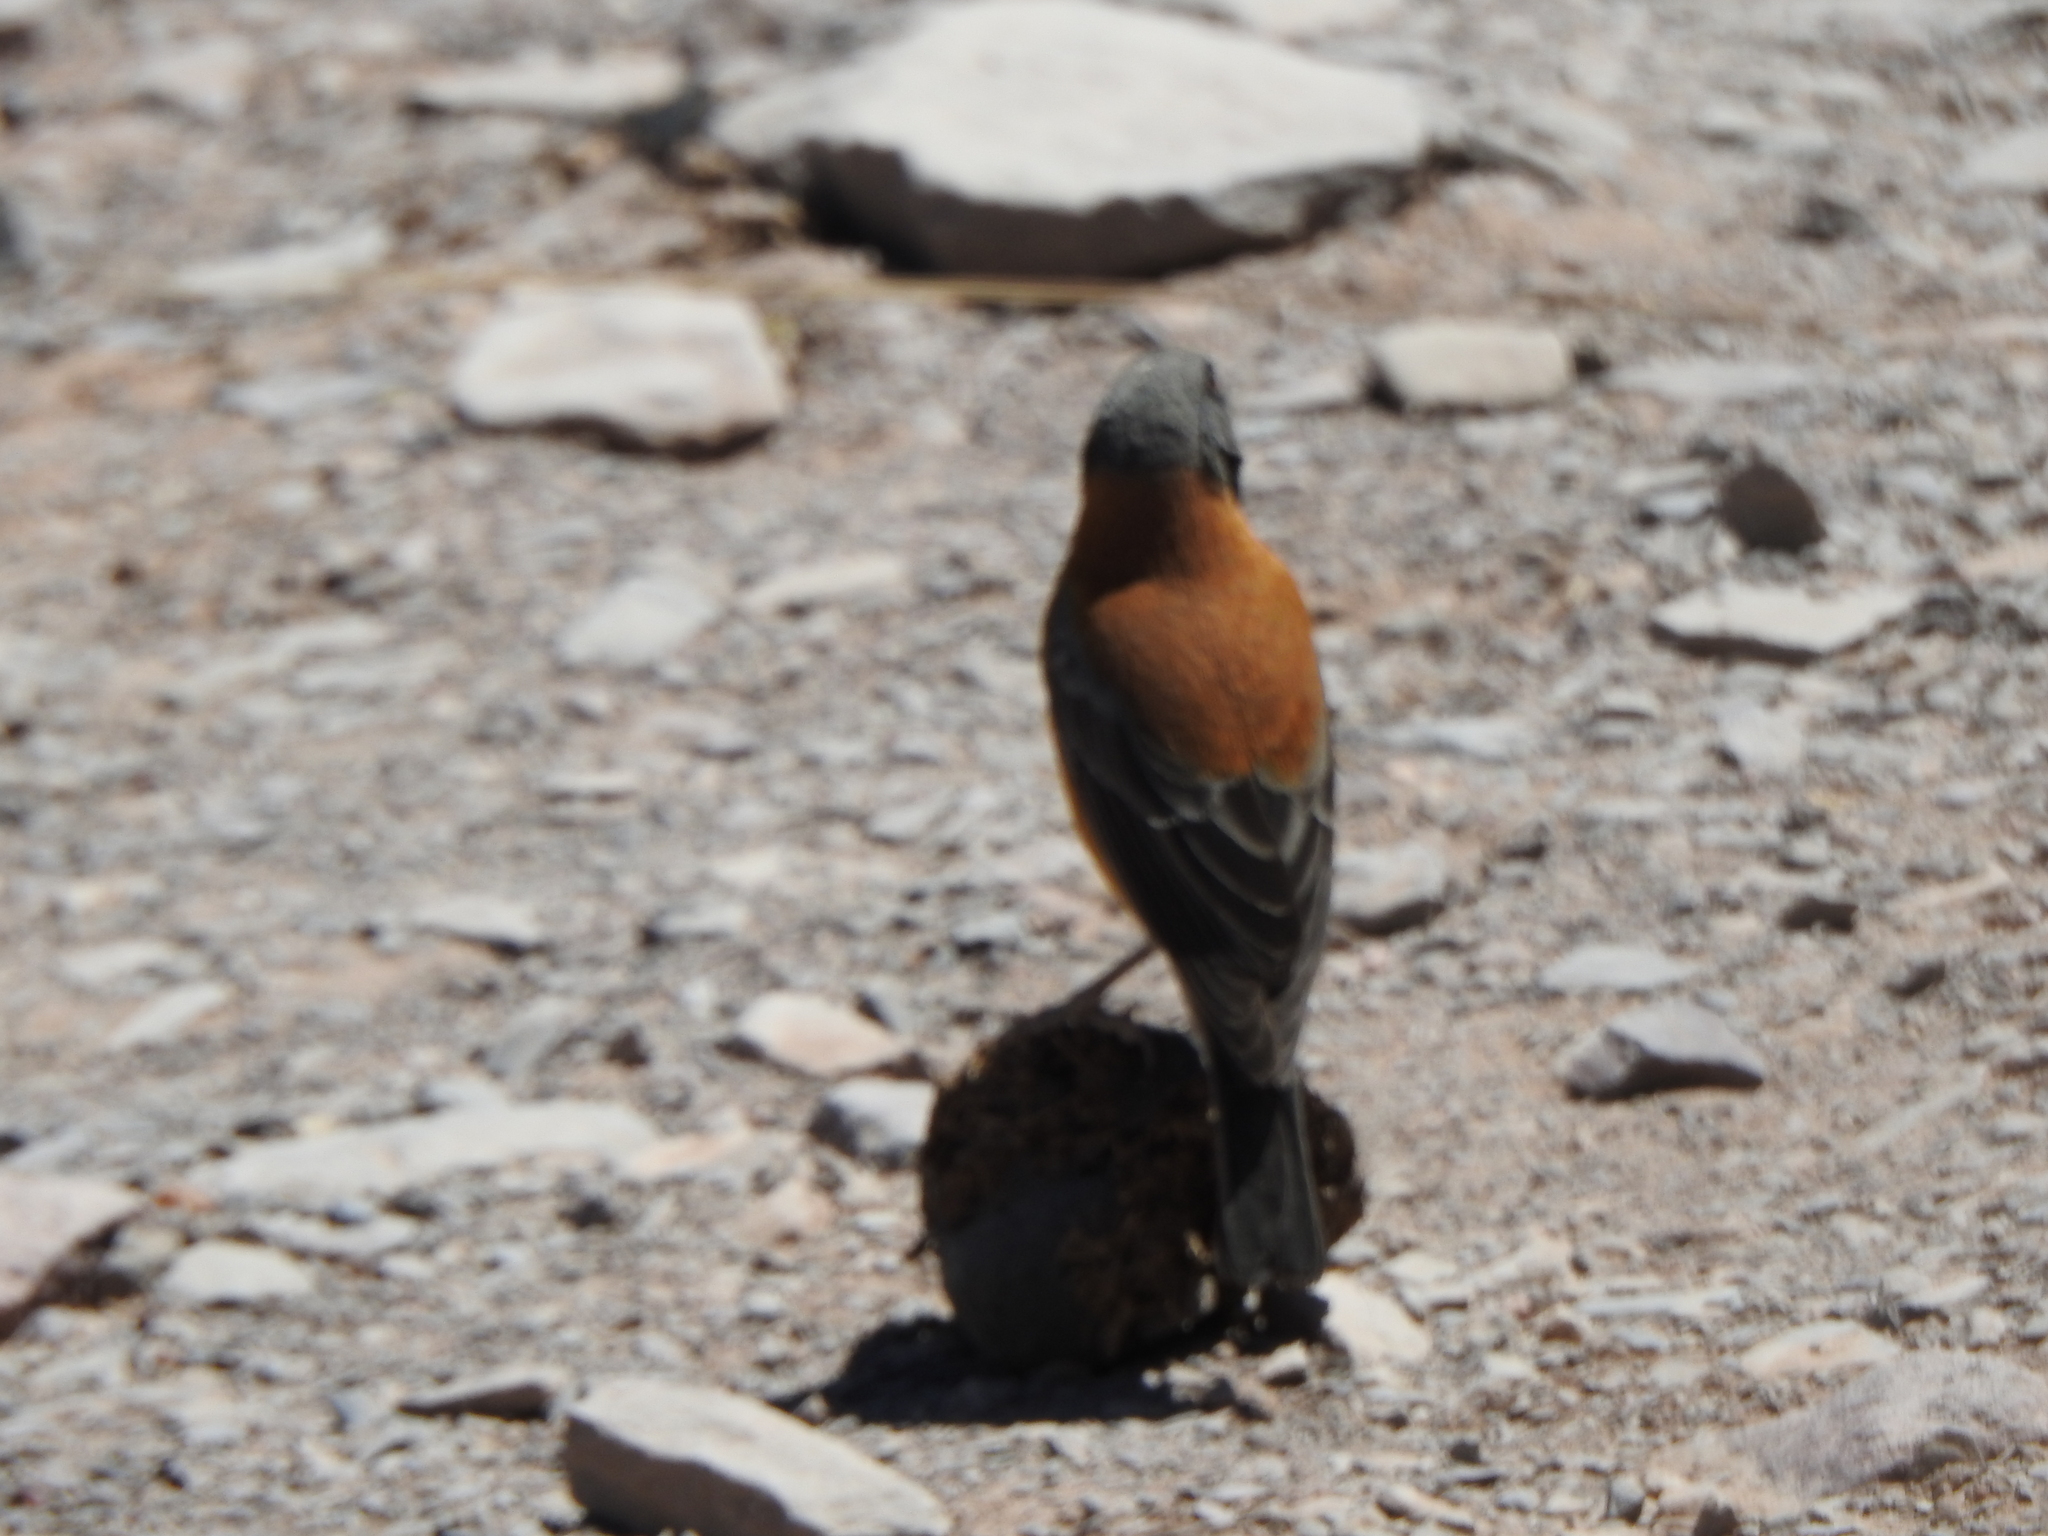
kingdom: Animalia
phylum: Chordata
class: Aves
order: Passeriformes
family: Thraupidae
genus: Phrygilus
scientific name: Phrygilus atriceps
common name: Black-hooded sierra finch
